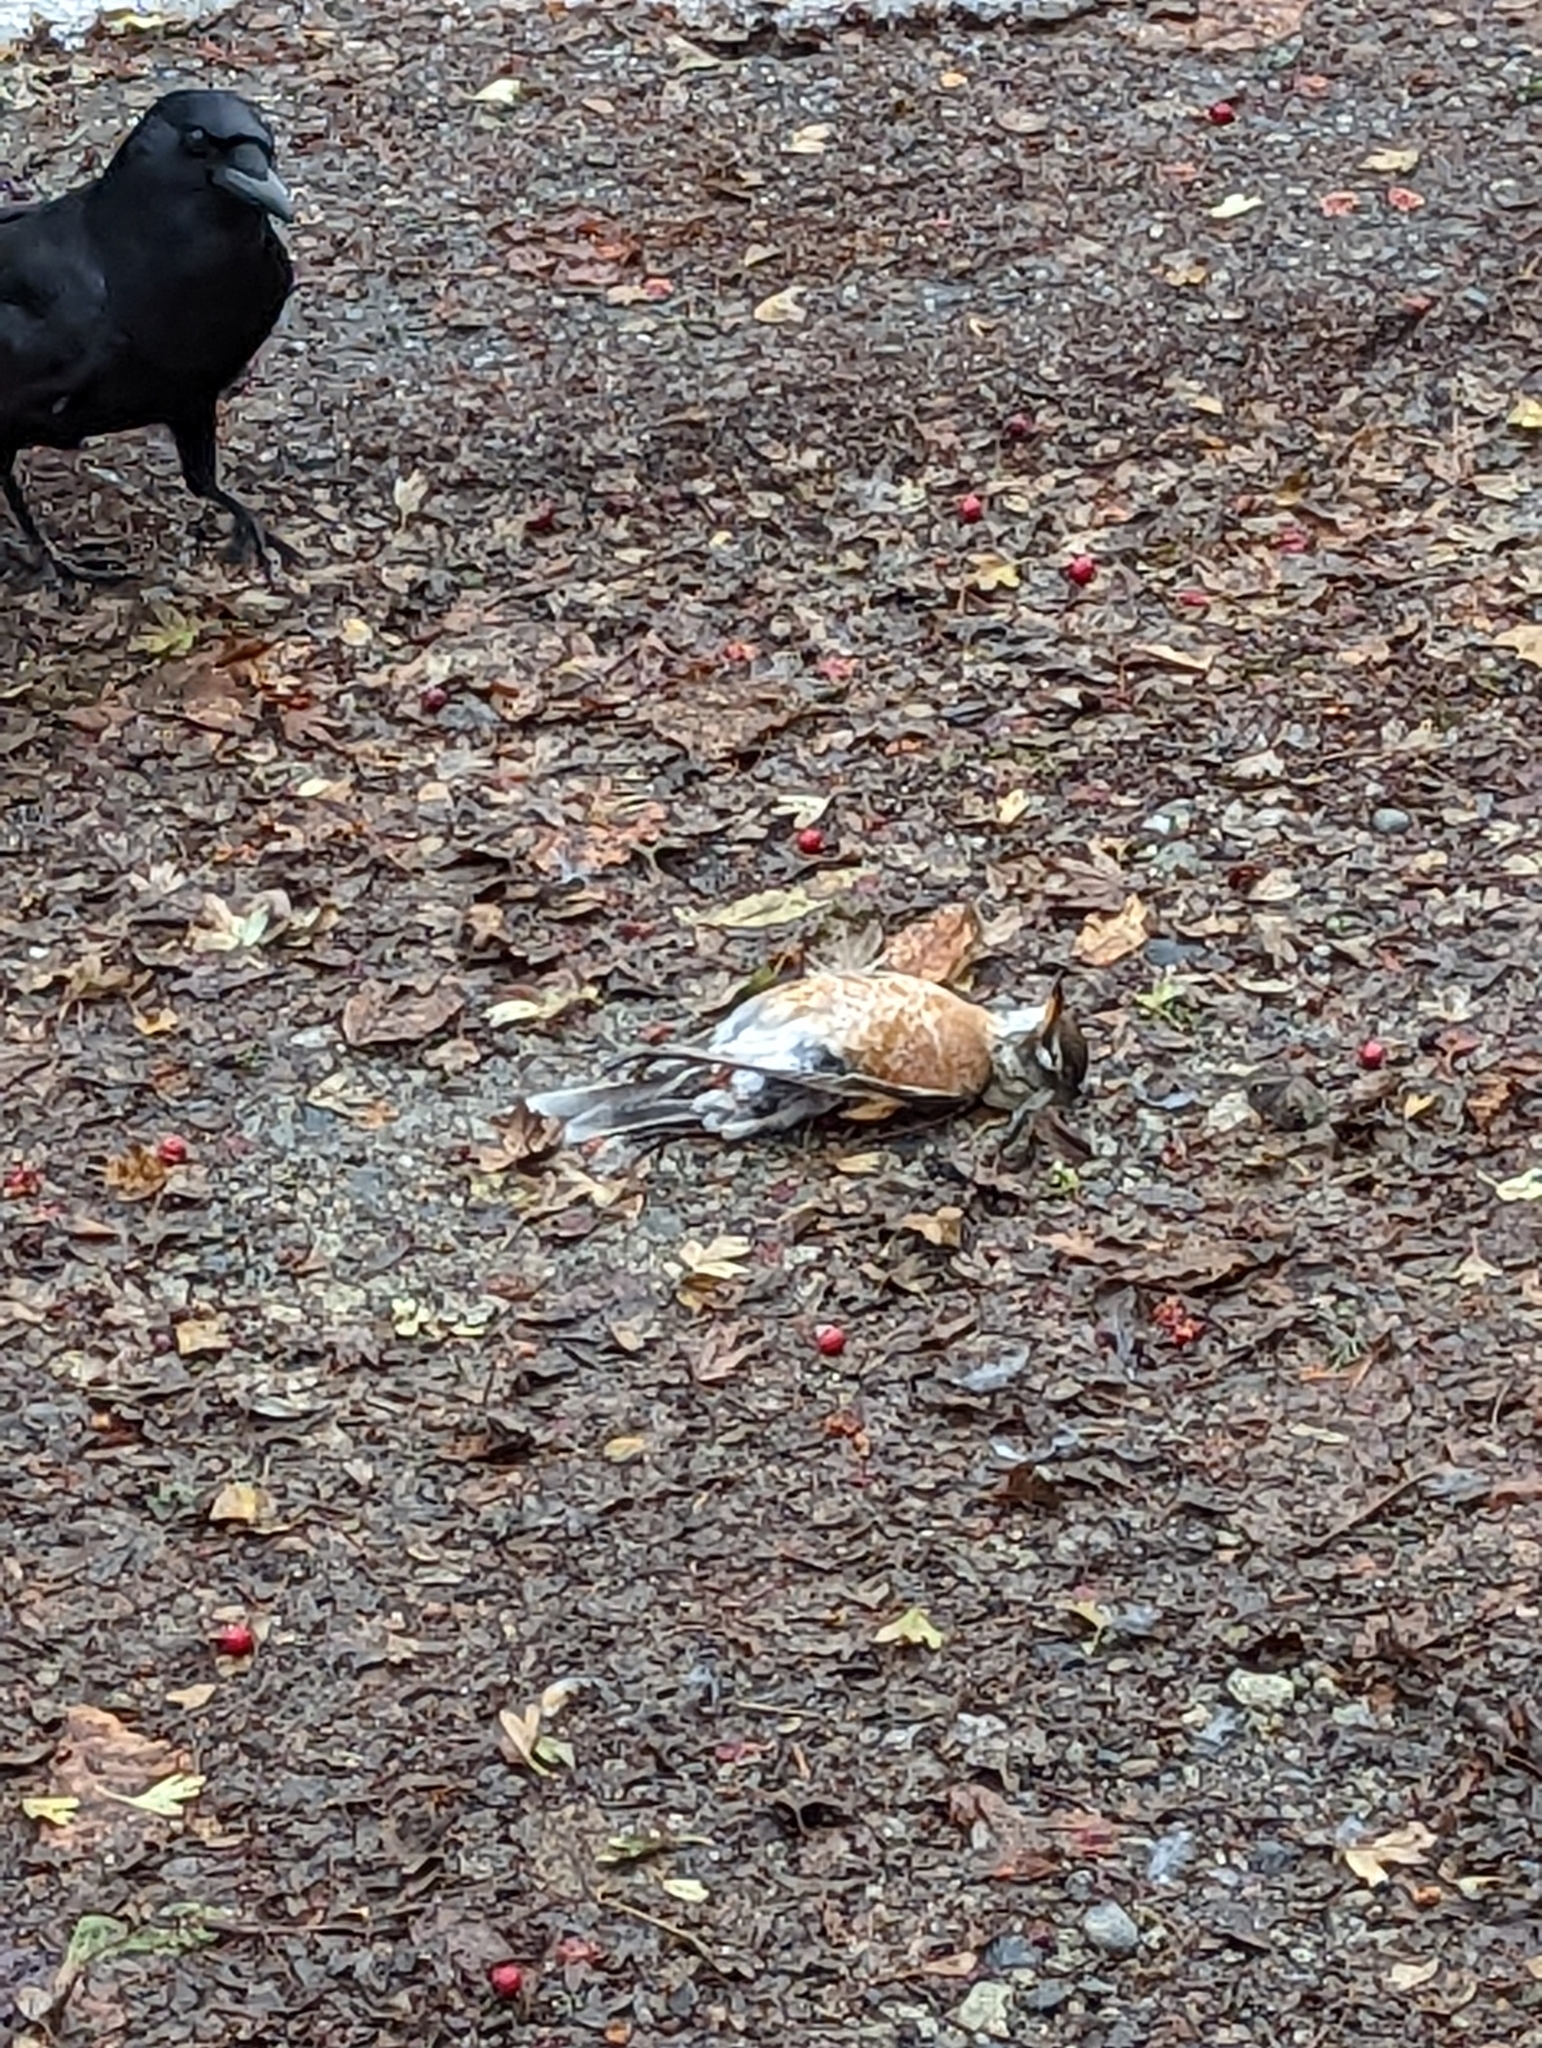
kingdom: Animalia
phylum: Chordata
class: Aves
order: Passeriformes
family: Turdidae
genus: Turdus
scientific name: Turdus migratorius
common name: American robin
